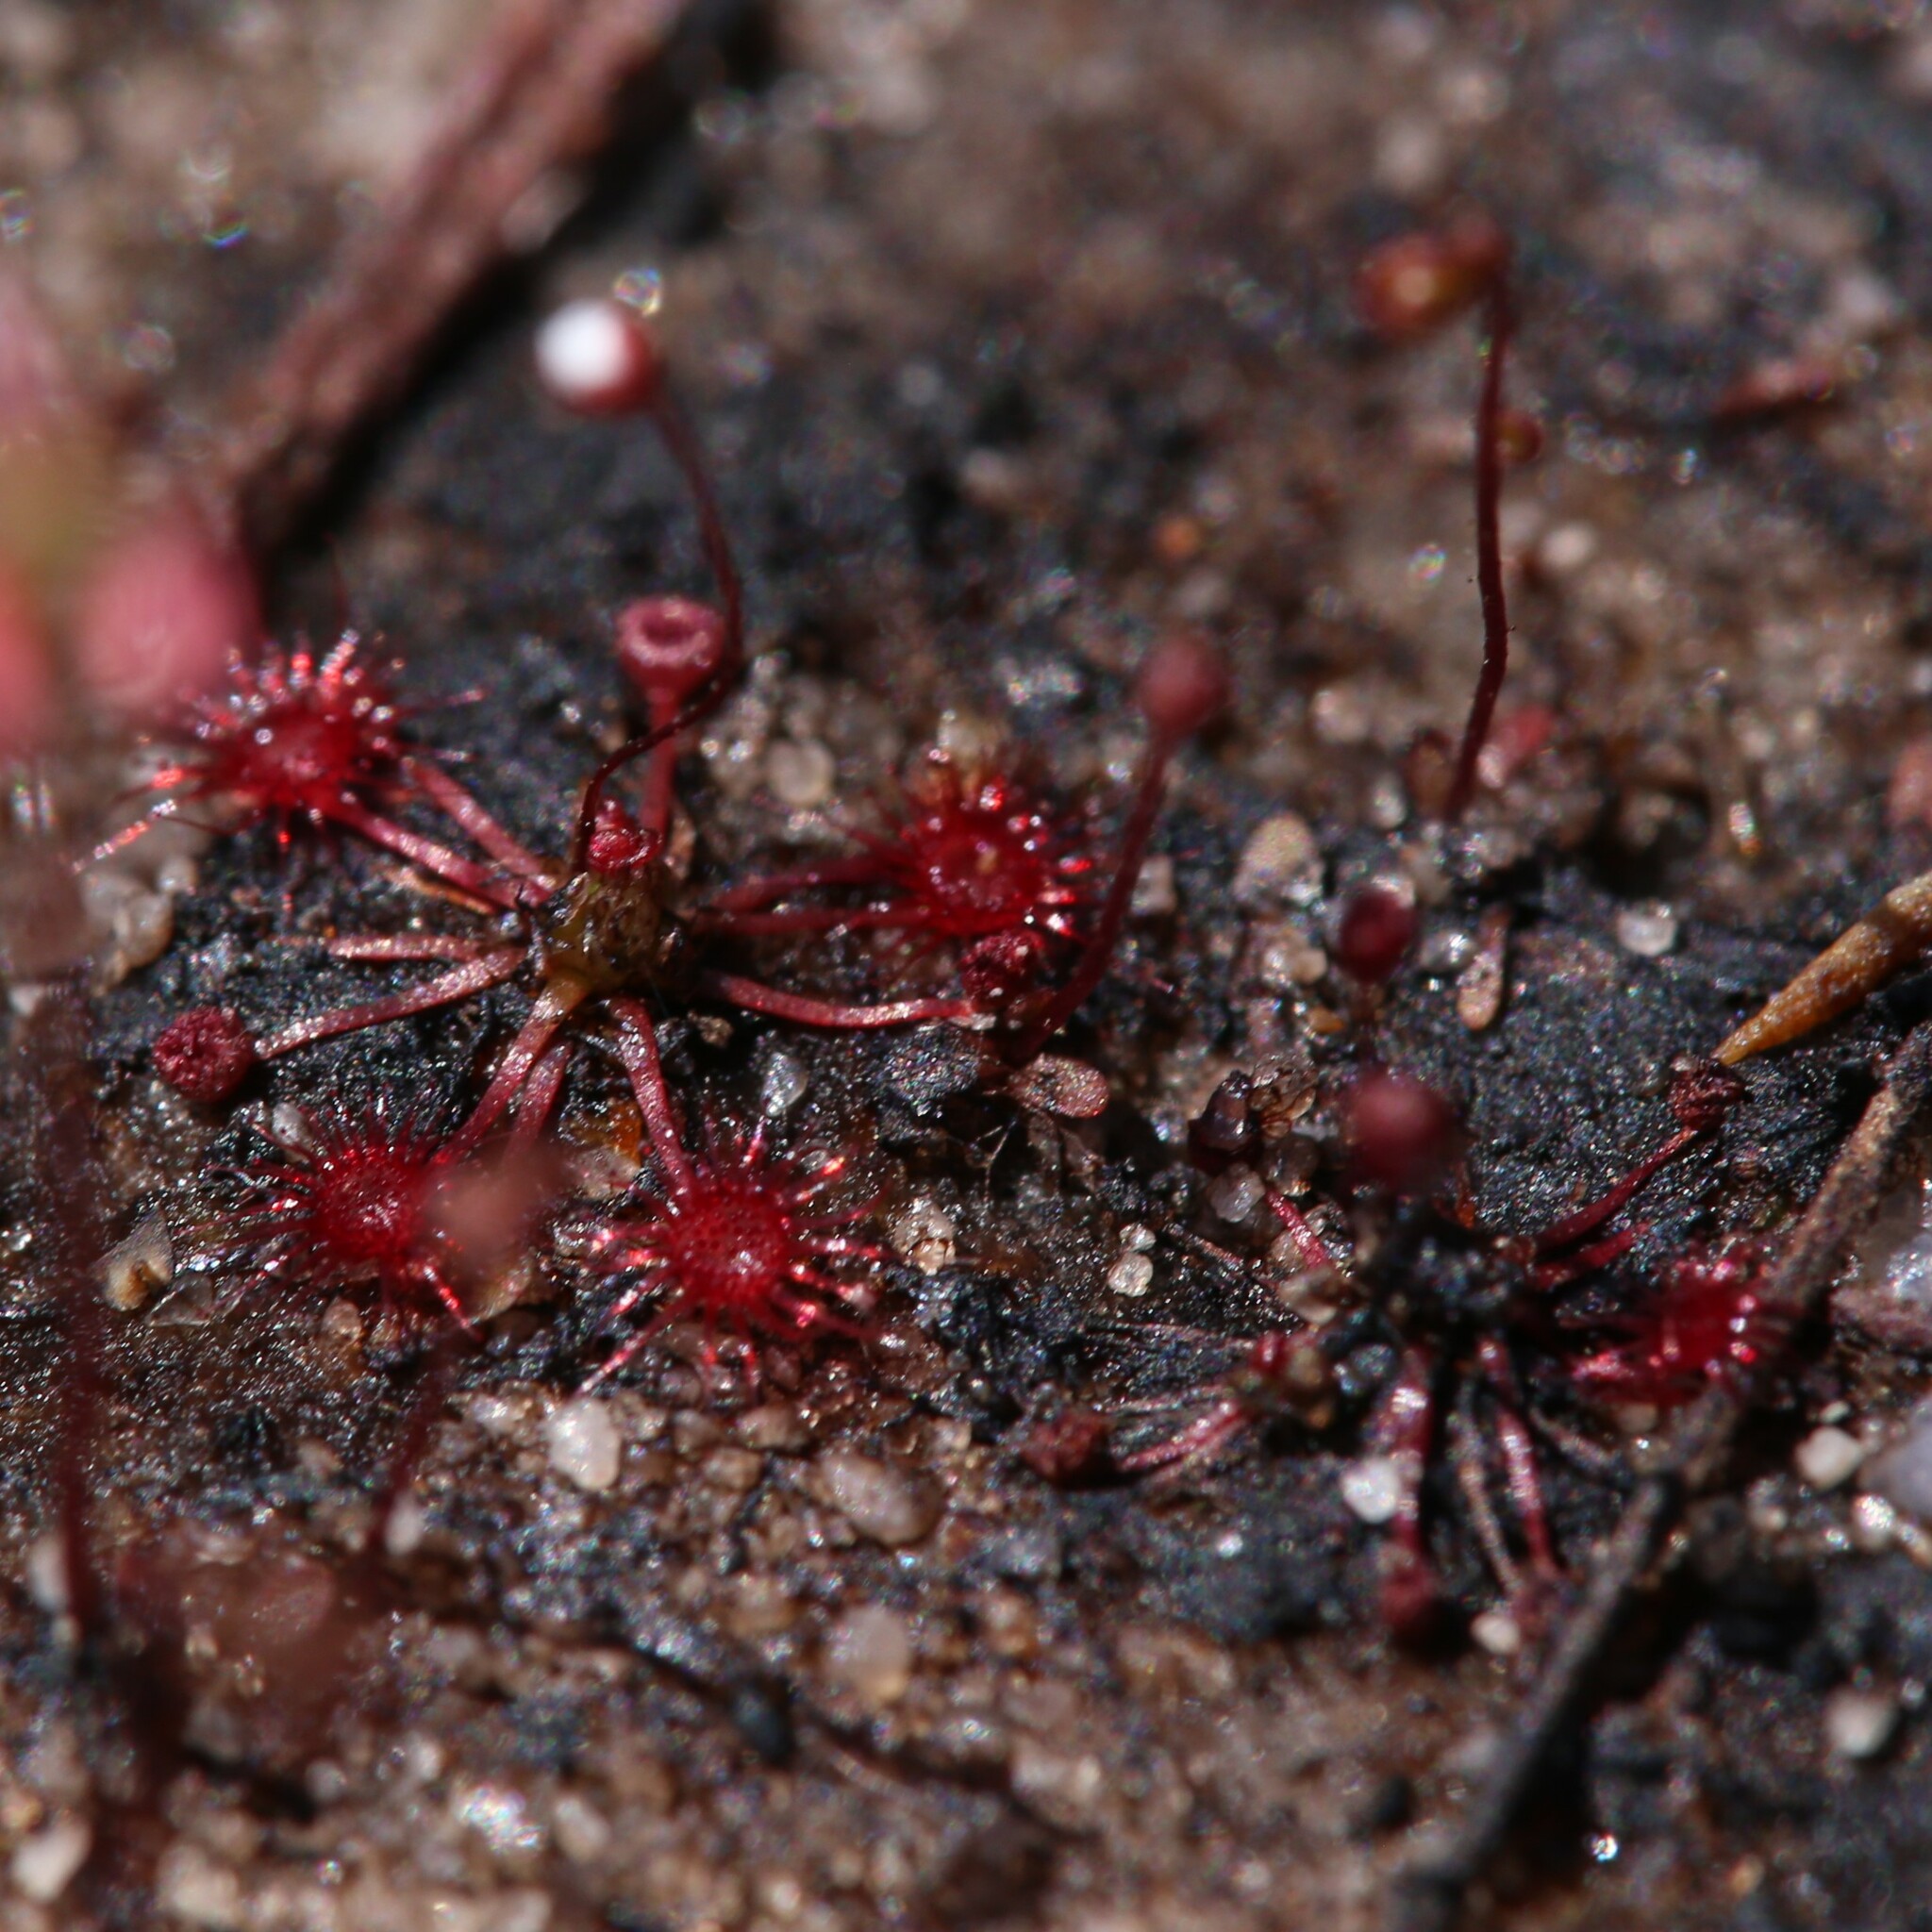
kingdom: Plantae
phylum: Tracheophyta
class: Magnoliopsida
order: Caryophyllales
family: Droseraceae
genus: Drosera
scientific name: Drosera pygmaea
